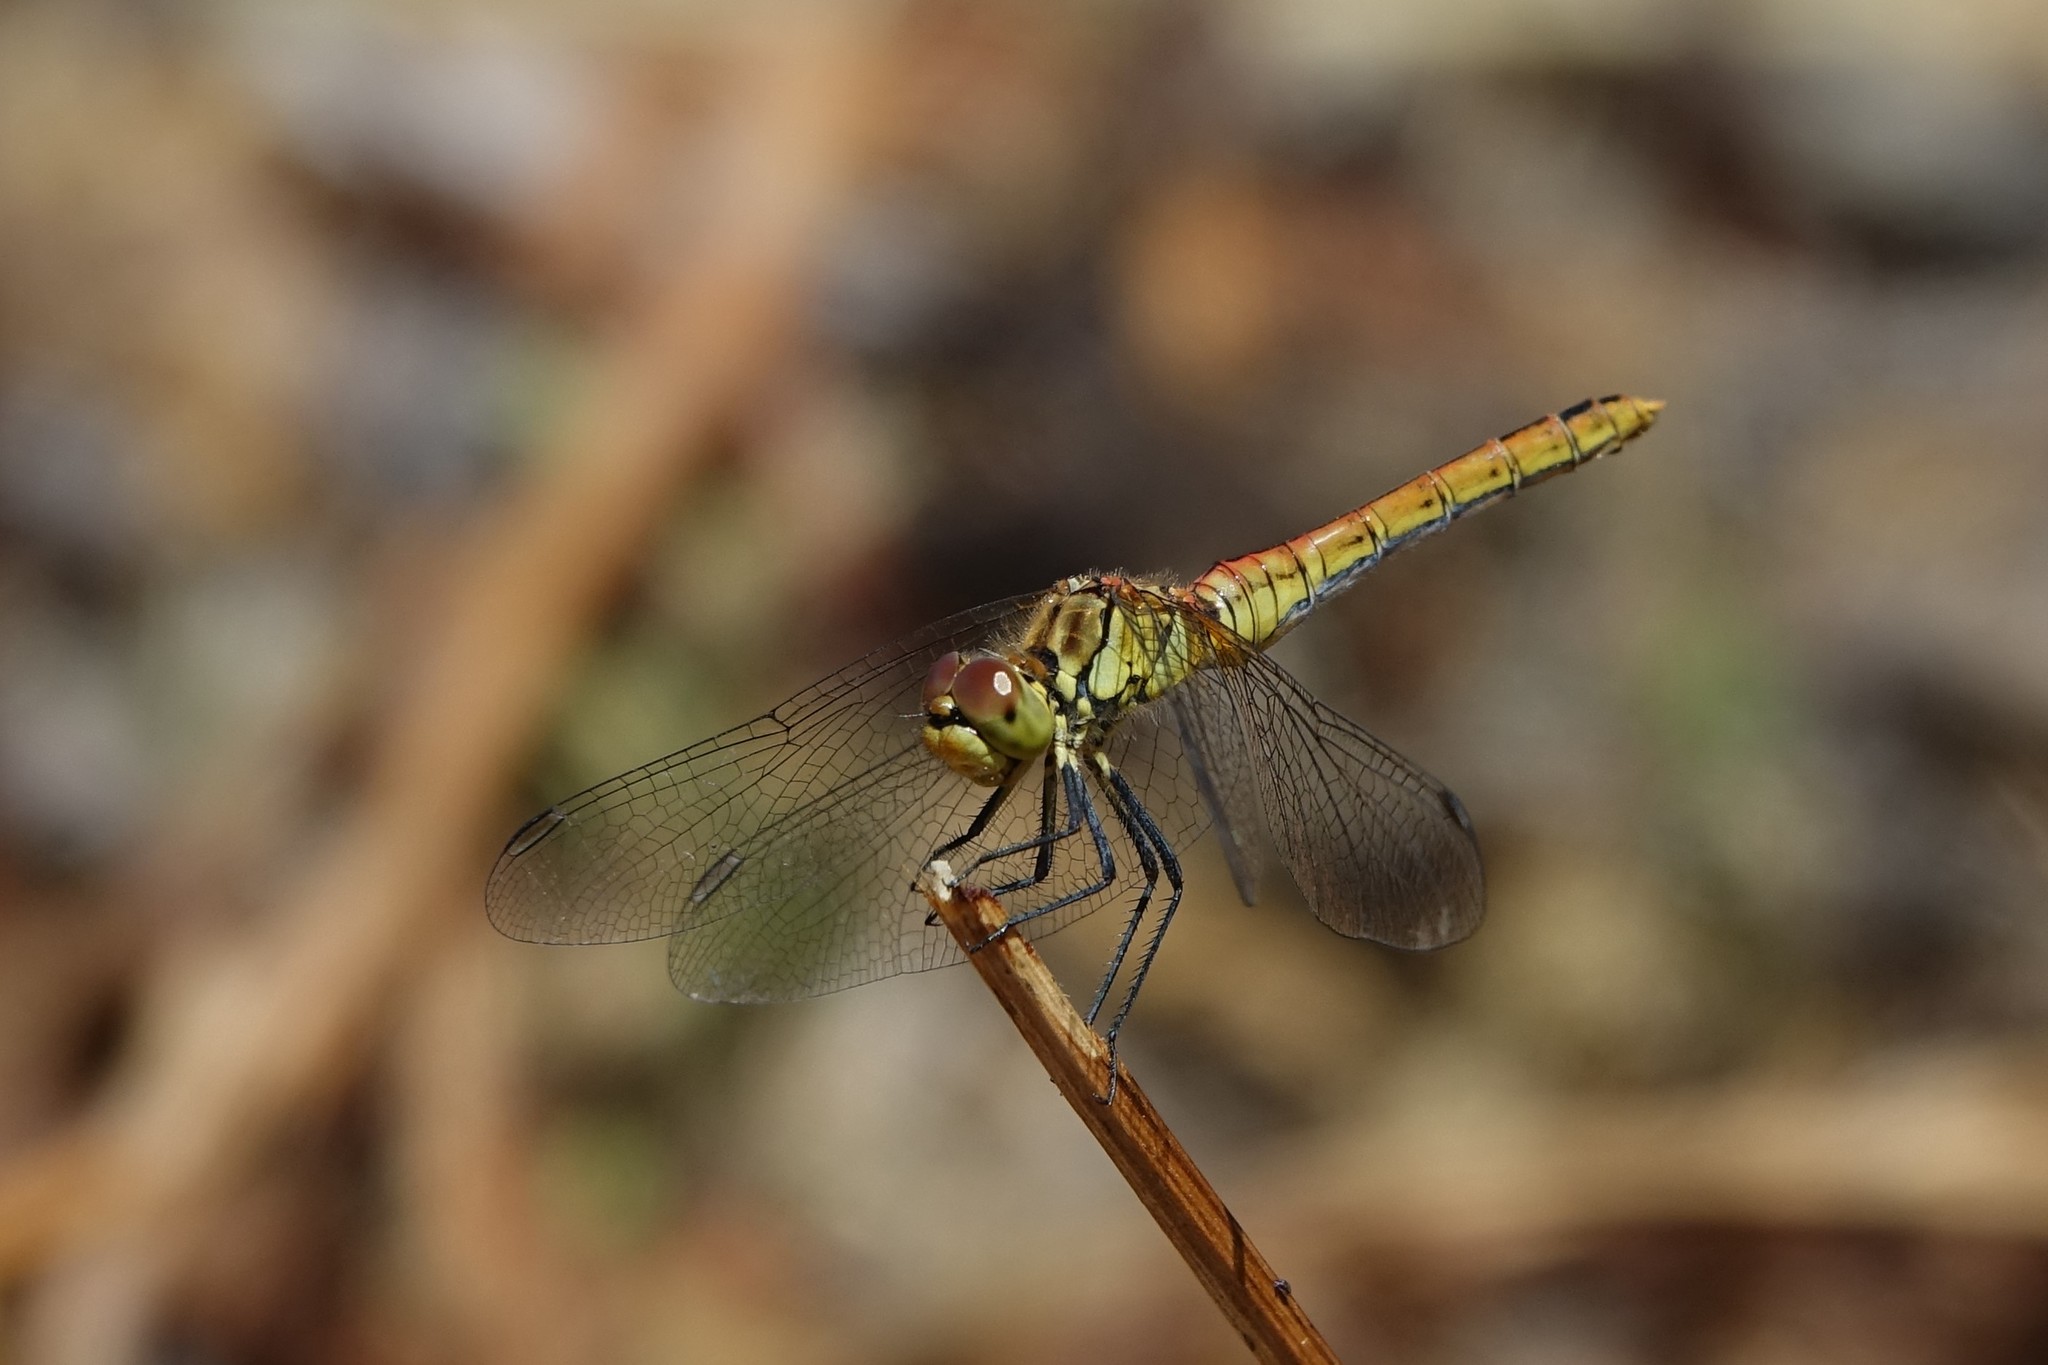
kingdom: Animalia
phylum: Arthropoda
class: Insecta
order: Odonata
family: Libellulidae
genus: Sympetrum
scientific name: Sympetrum sanguineum
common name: Ruddy darter
